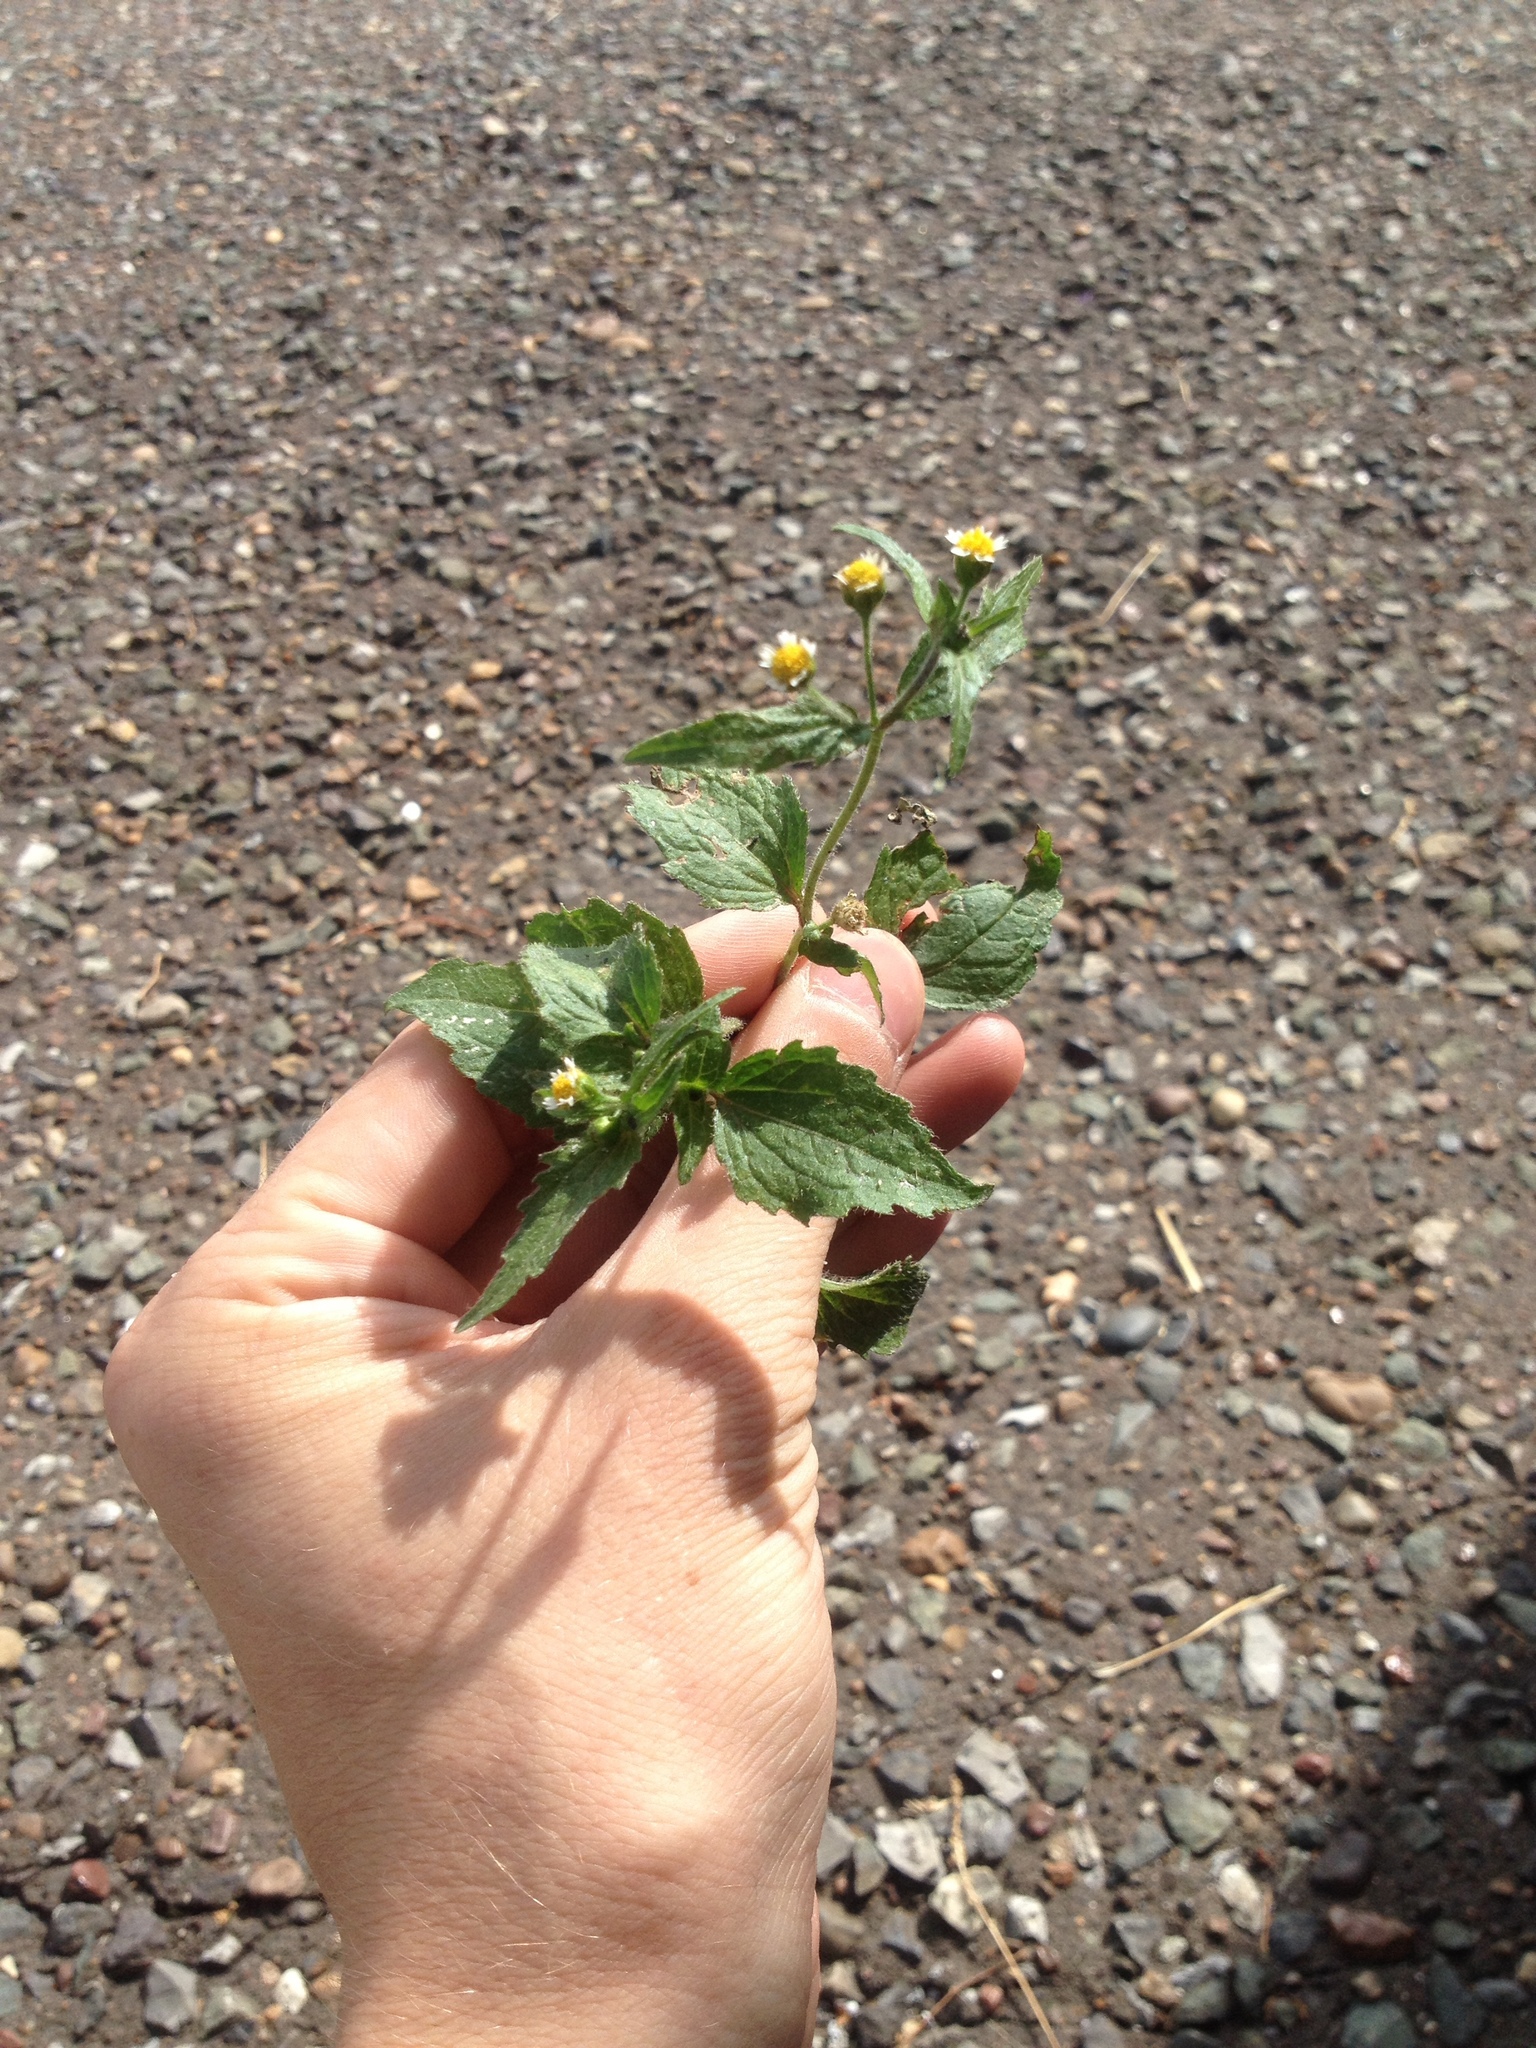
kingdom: Plantae
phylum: Tracheophyta
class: Magnoliopsida
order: Asterales
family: Asteraceae
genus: Galinsoga
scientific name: Galinsoga quadriradiata
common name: Shaggy soldier
